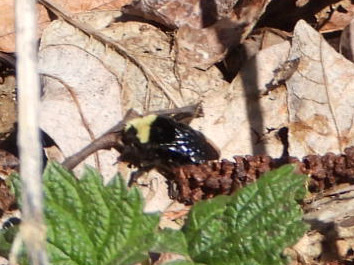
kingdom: Animalia
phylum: Arthropoda
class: Insecta
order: Hymenoptera
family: Apidae
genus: Bombus
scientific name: Bombus vosnesenskii
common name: Vosnesensky bumble bee
